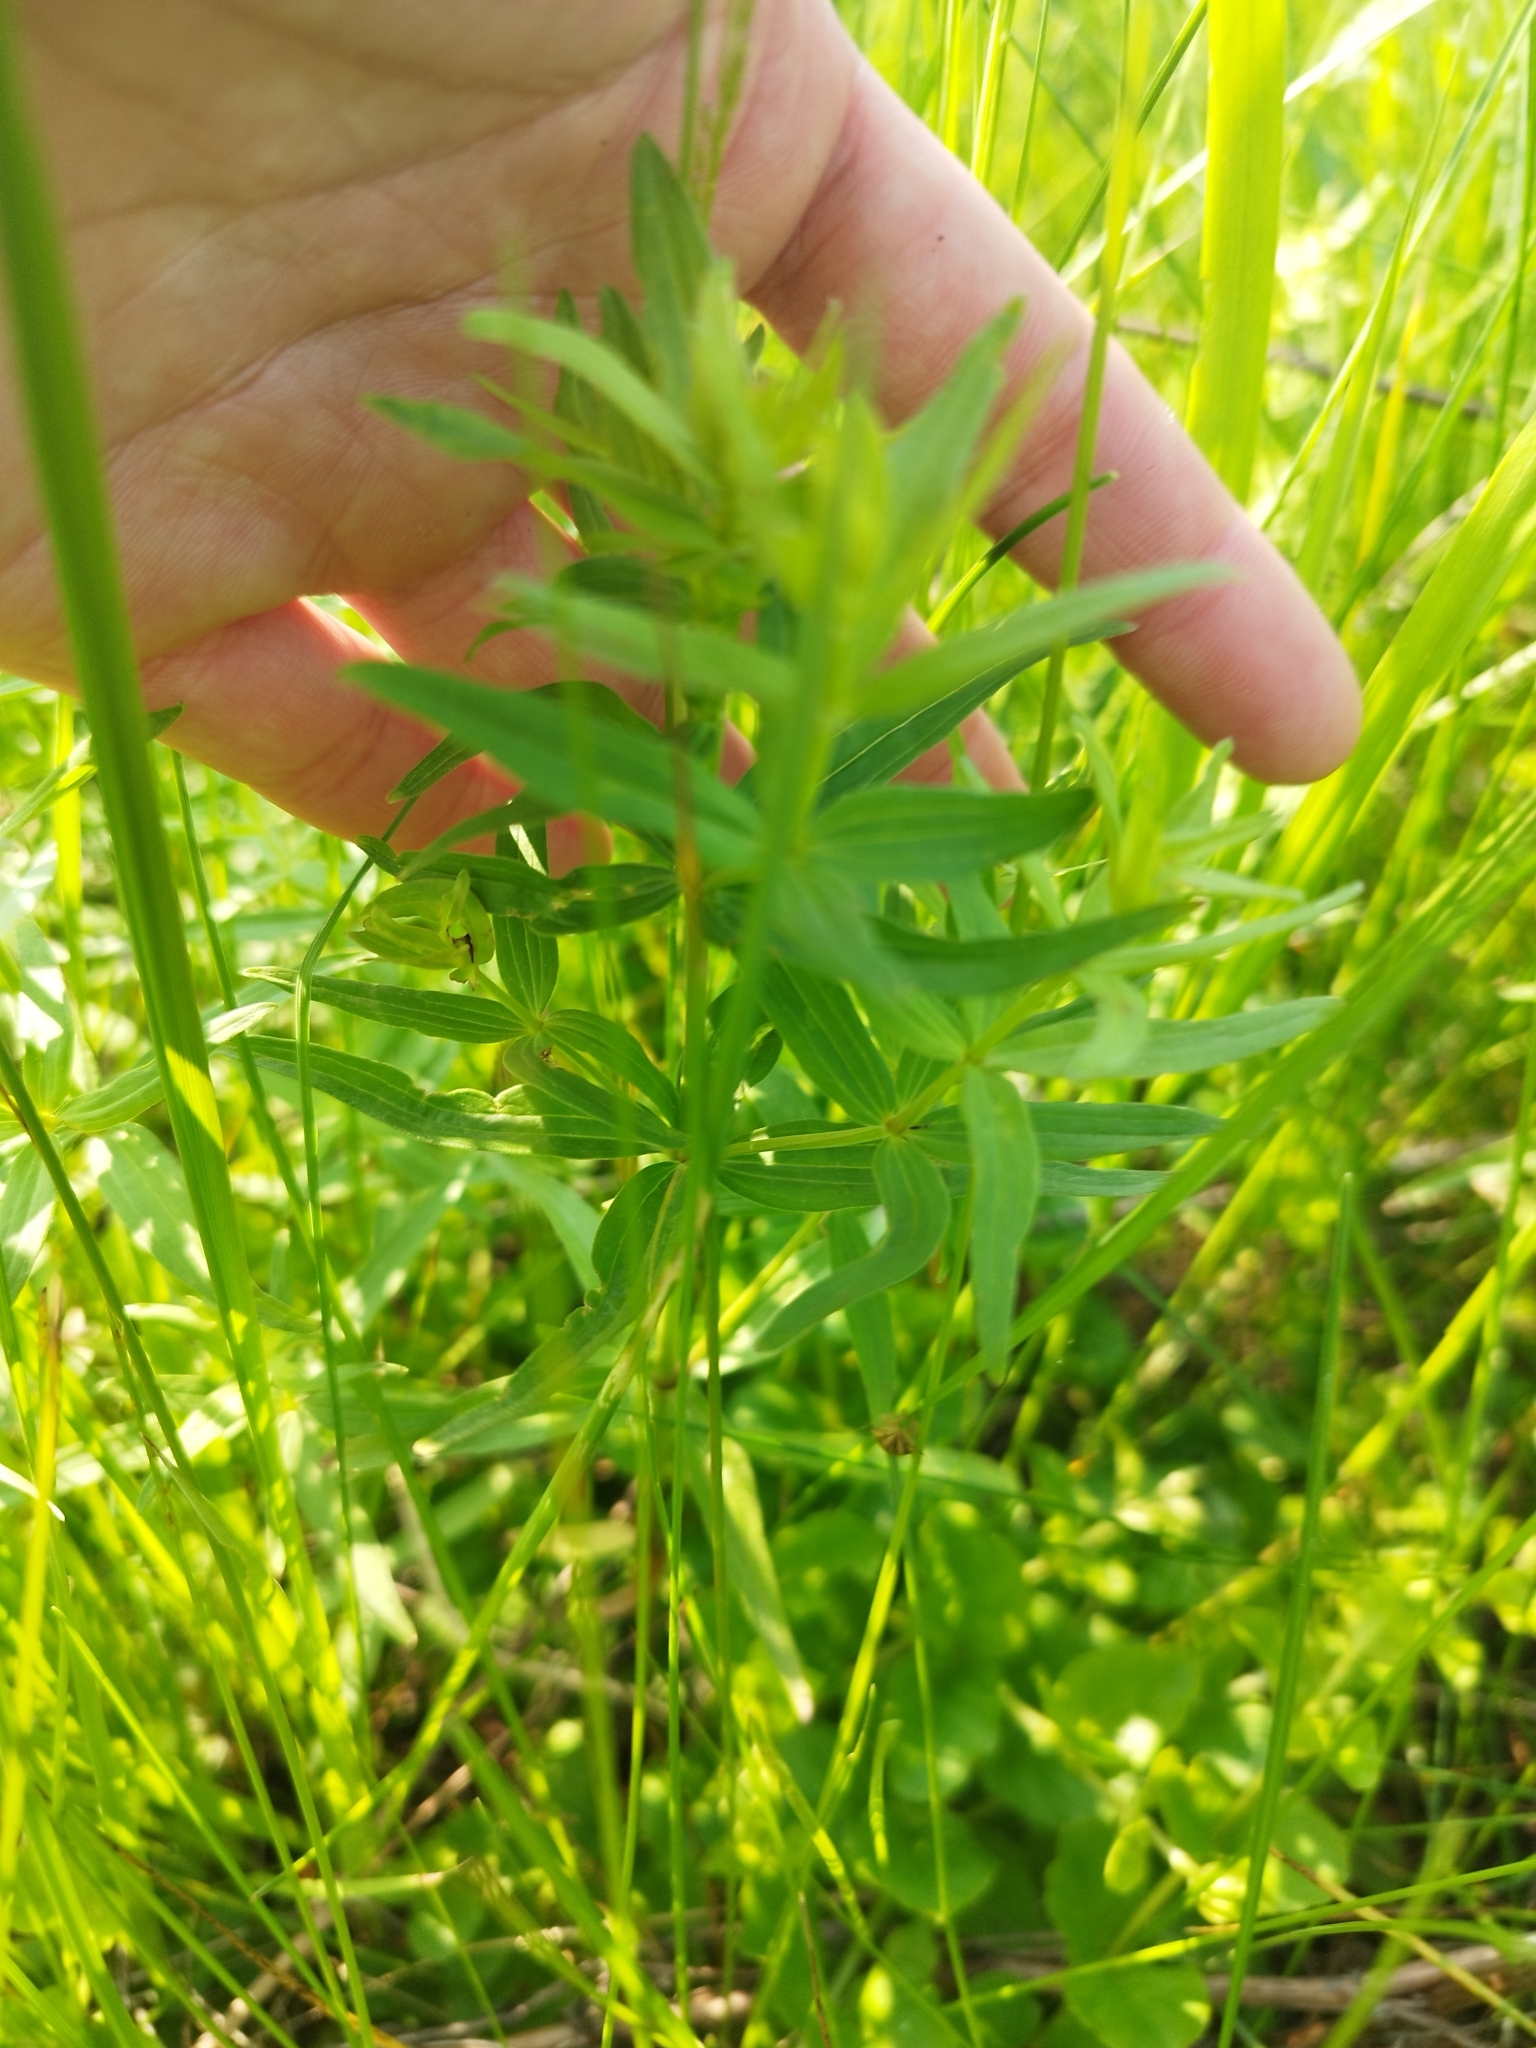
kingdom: Plantae
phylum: Tracheophyta
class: Magnoliopsida
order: Gentianales
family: Rubiaceae
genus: Galium
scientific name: Galium boreale
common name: Northern bedstraw
